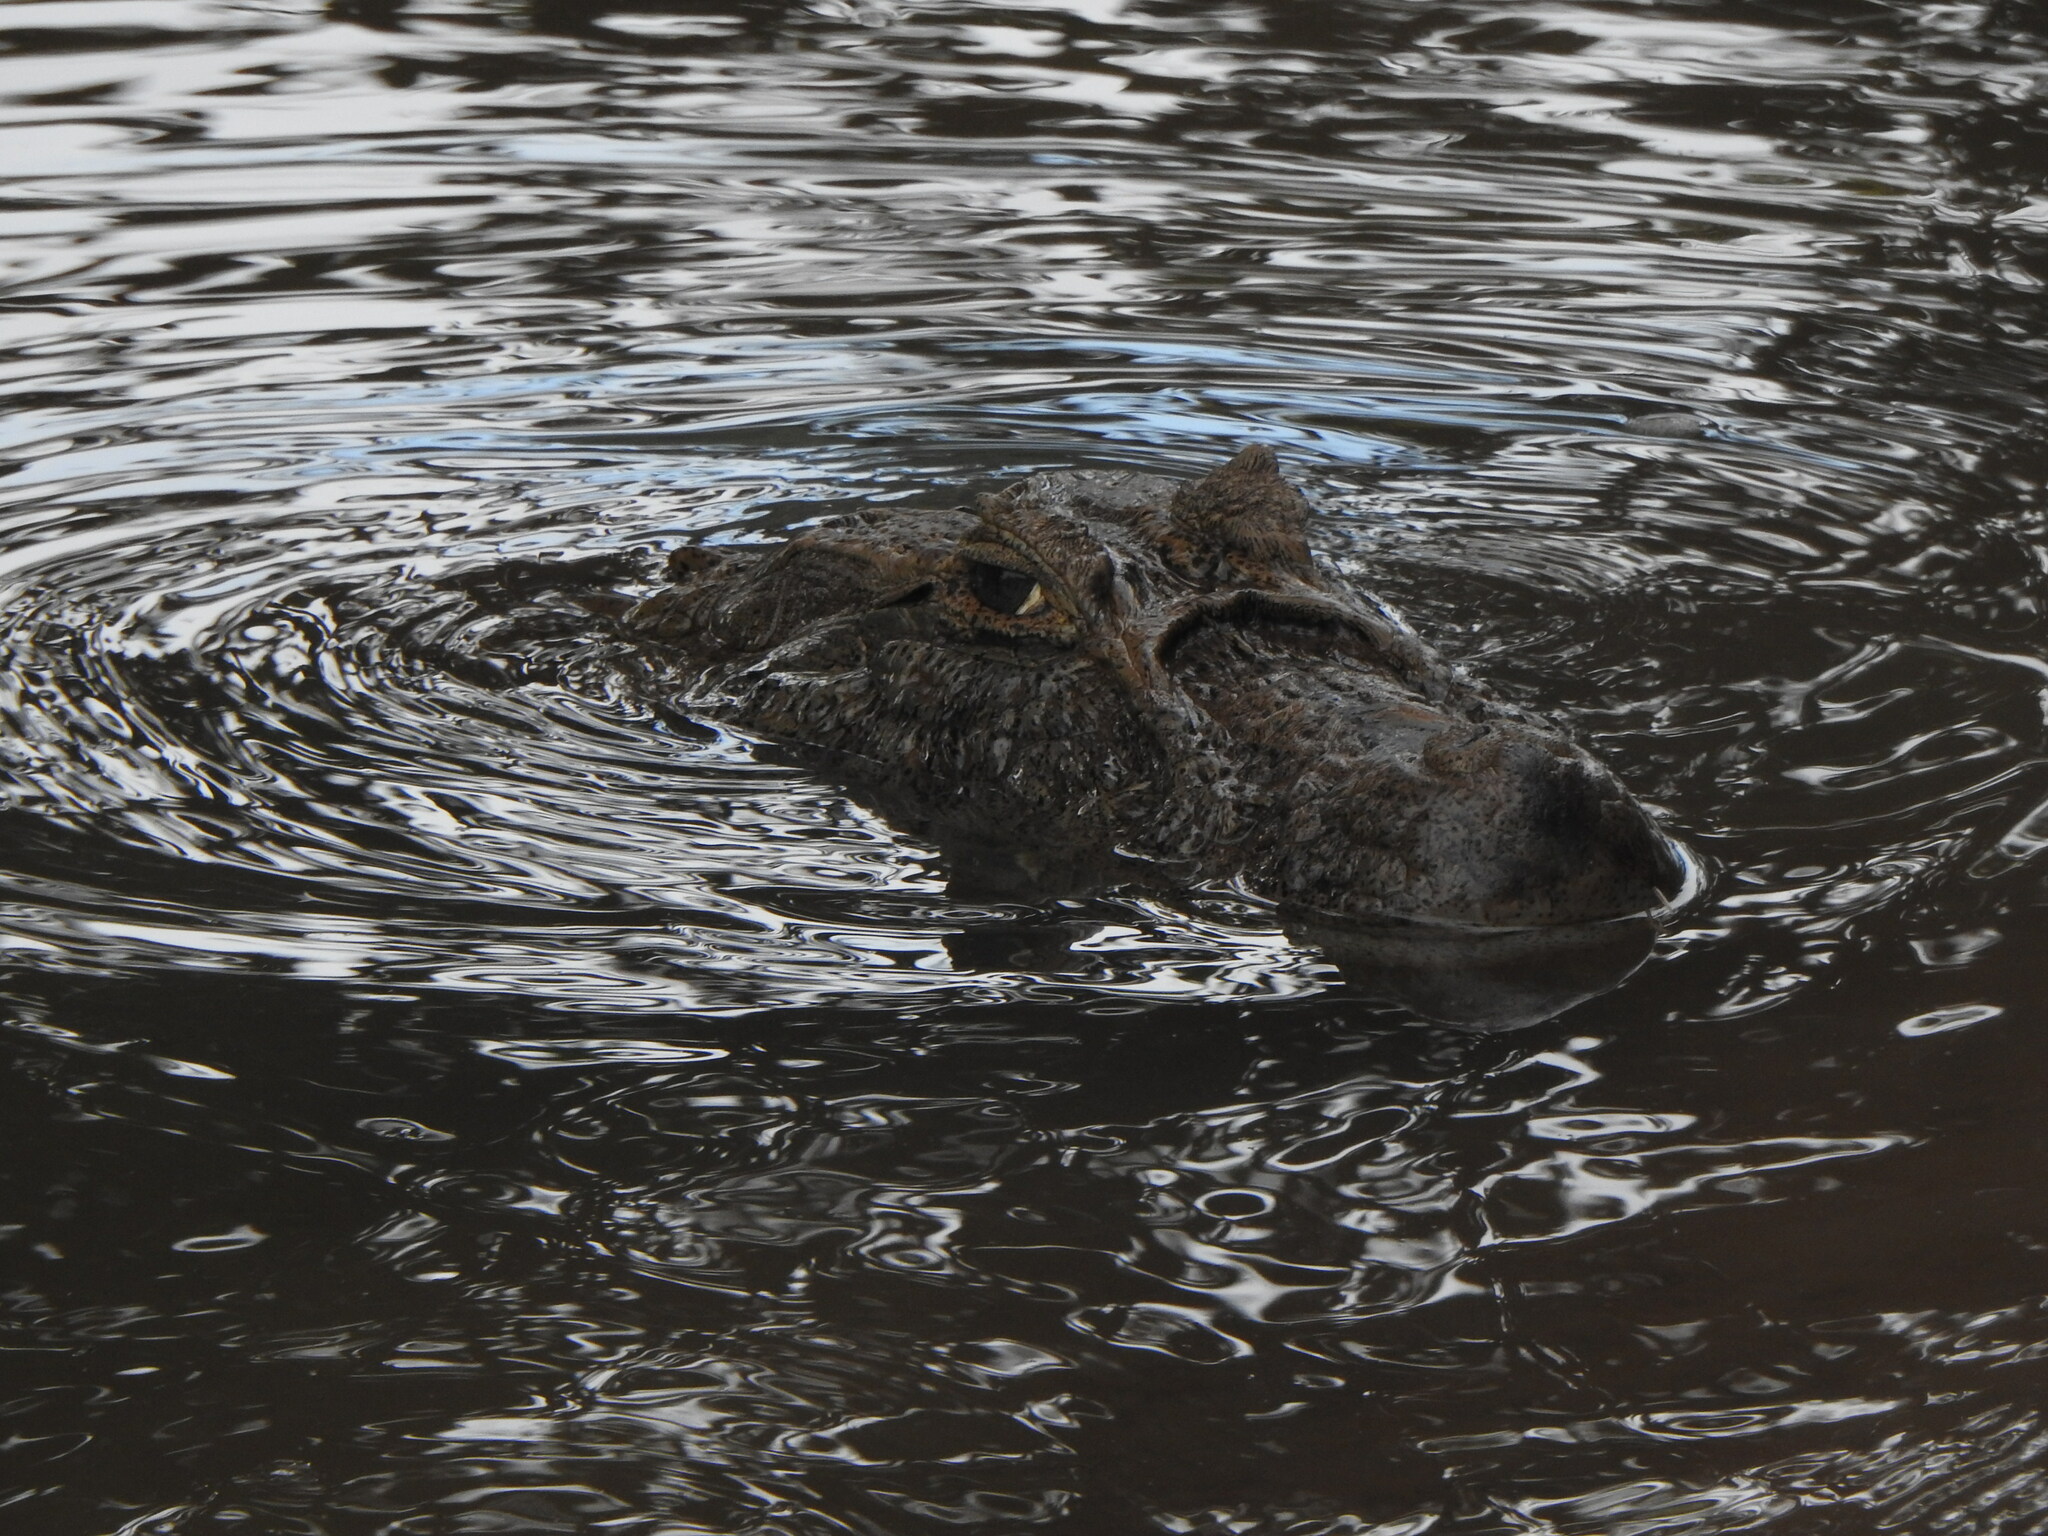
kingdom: Animalia
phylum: Chordata
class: Crocodylia
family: Alligatoridae
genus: Caiman
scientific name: Caiman latirostris
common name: Broad-snouted caiman
